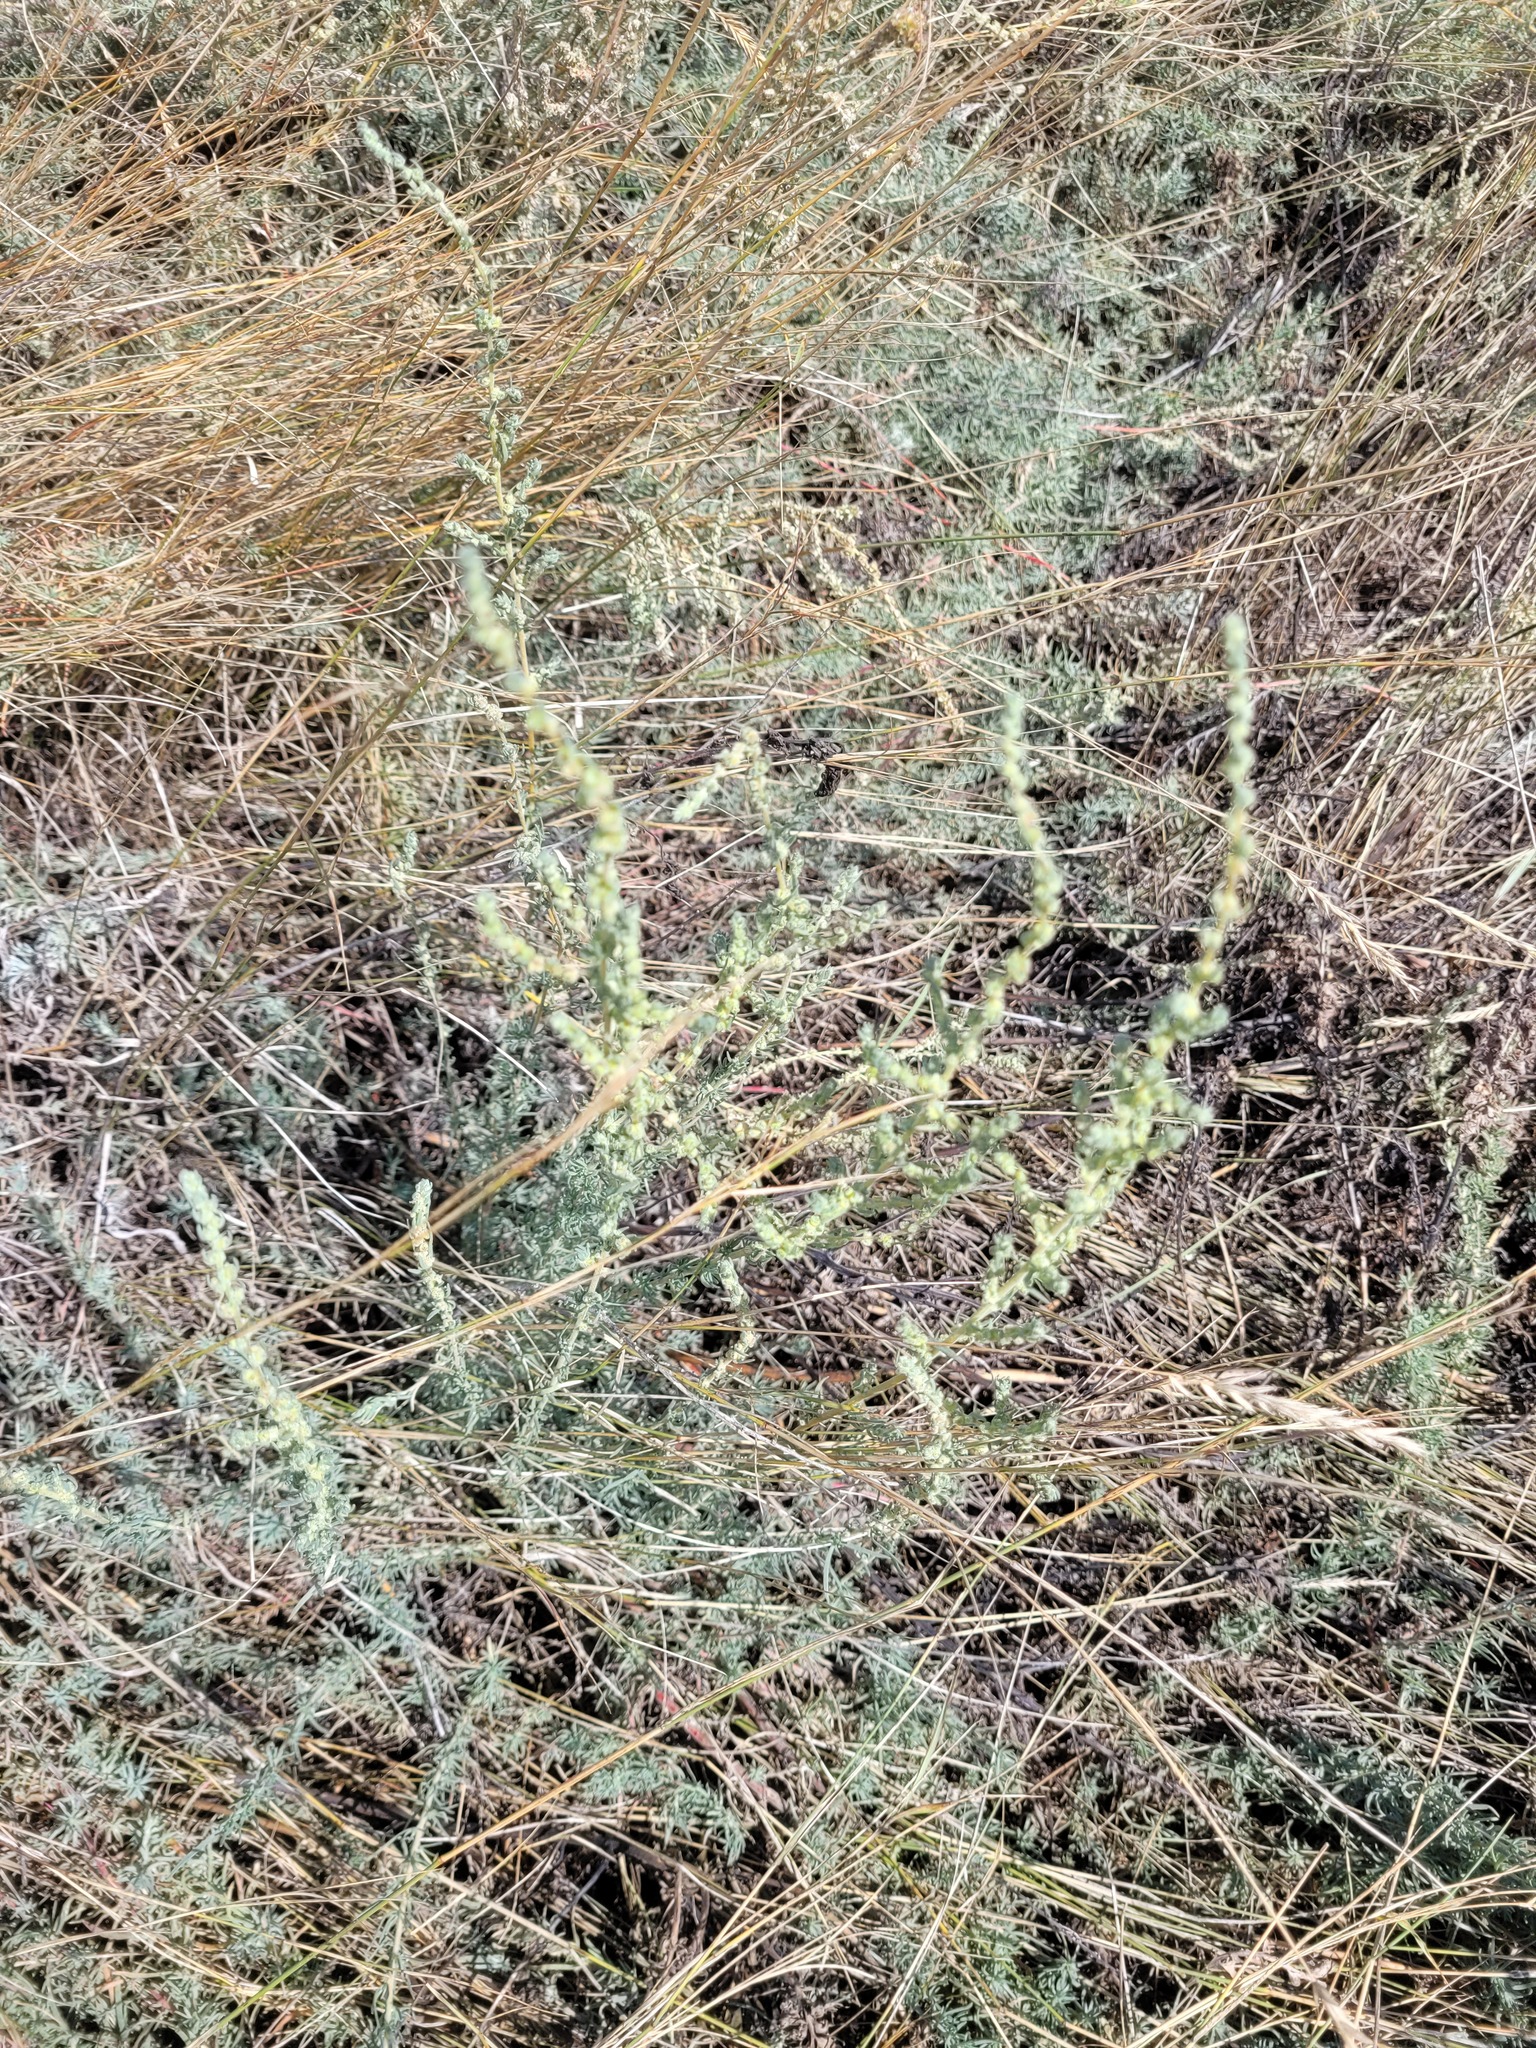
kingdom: Plantae
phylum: Tracheophyta
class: Magnoliopsida
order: Caryophyllales
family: Amaranthaceae
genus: Bassia
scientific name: Bassia prostrata
